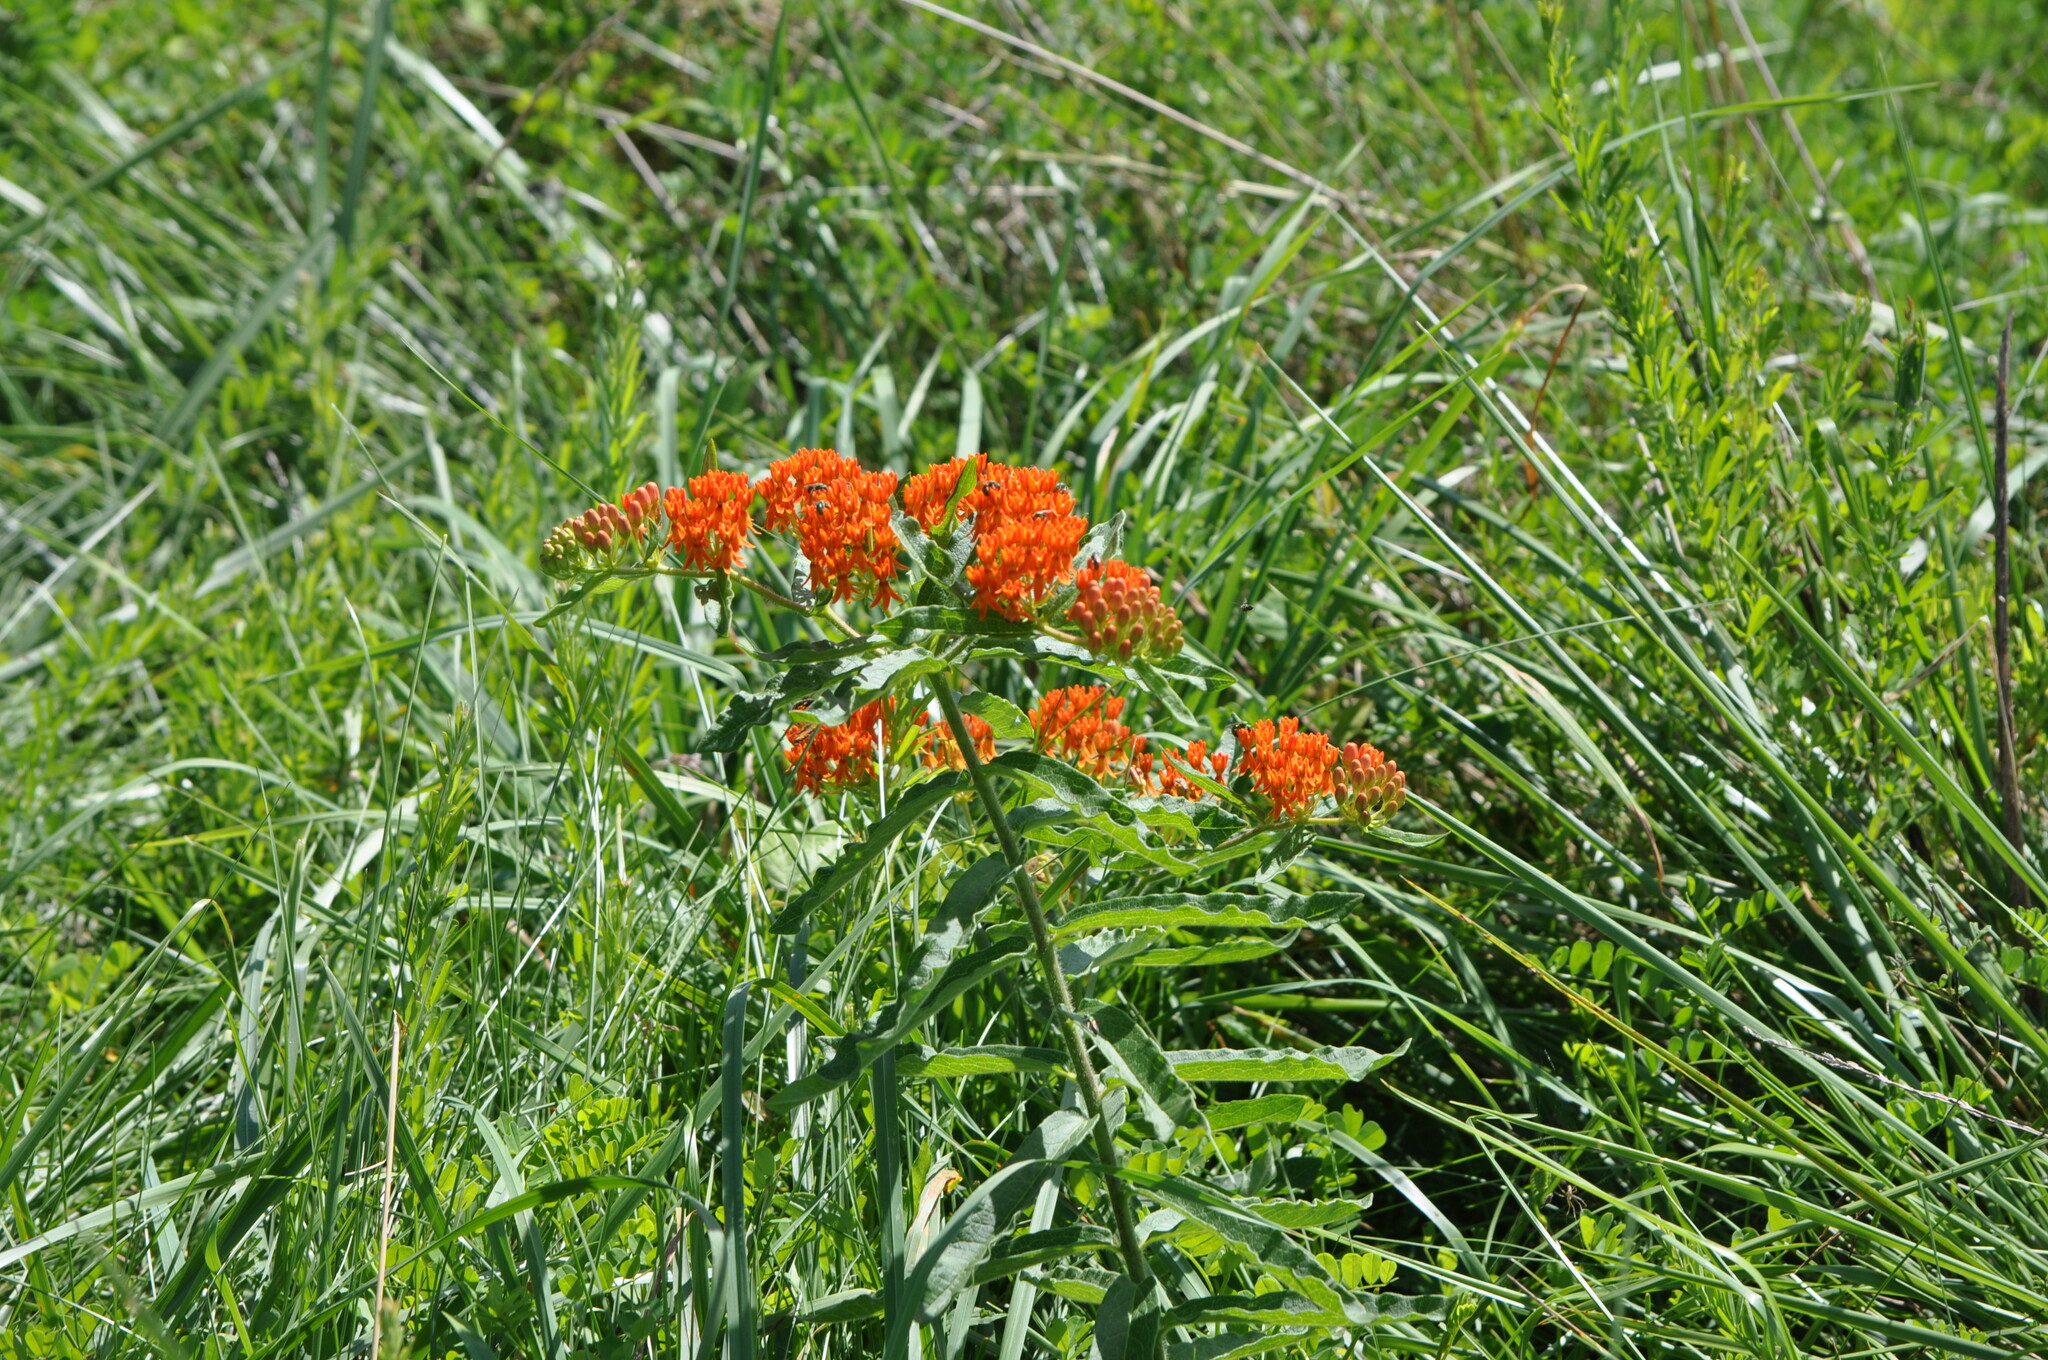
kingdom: Plantae
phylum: Tracheophyta
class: Magnoliopsida
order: Gentianales
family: Apocynaceae
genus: Asclepias
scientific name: Asclepias tuberosa
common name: Butterfly milkweed
